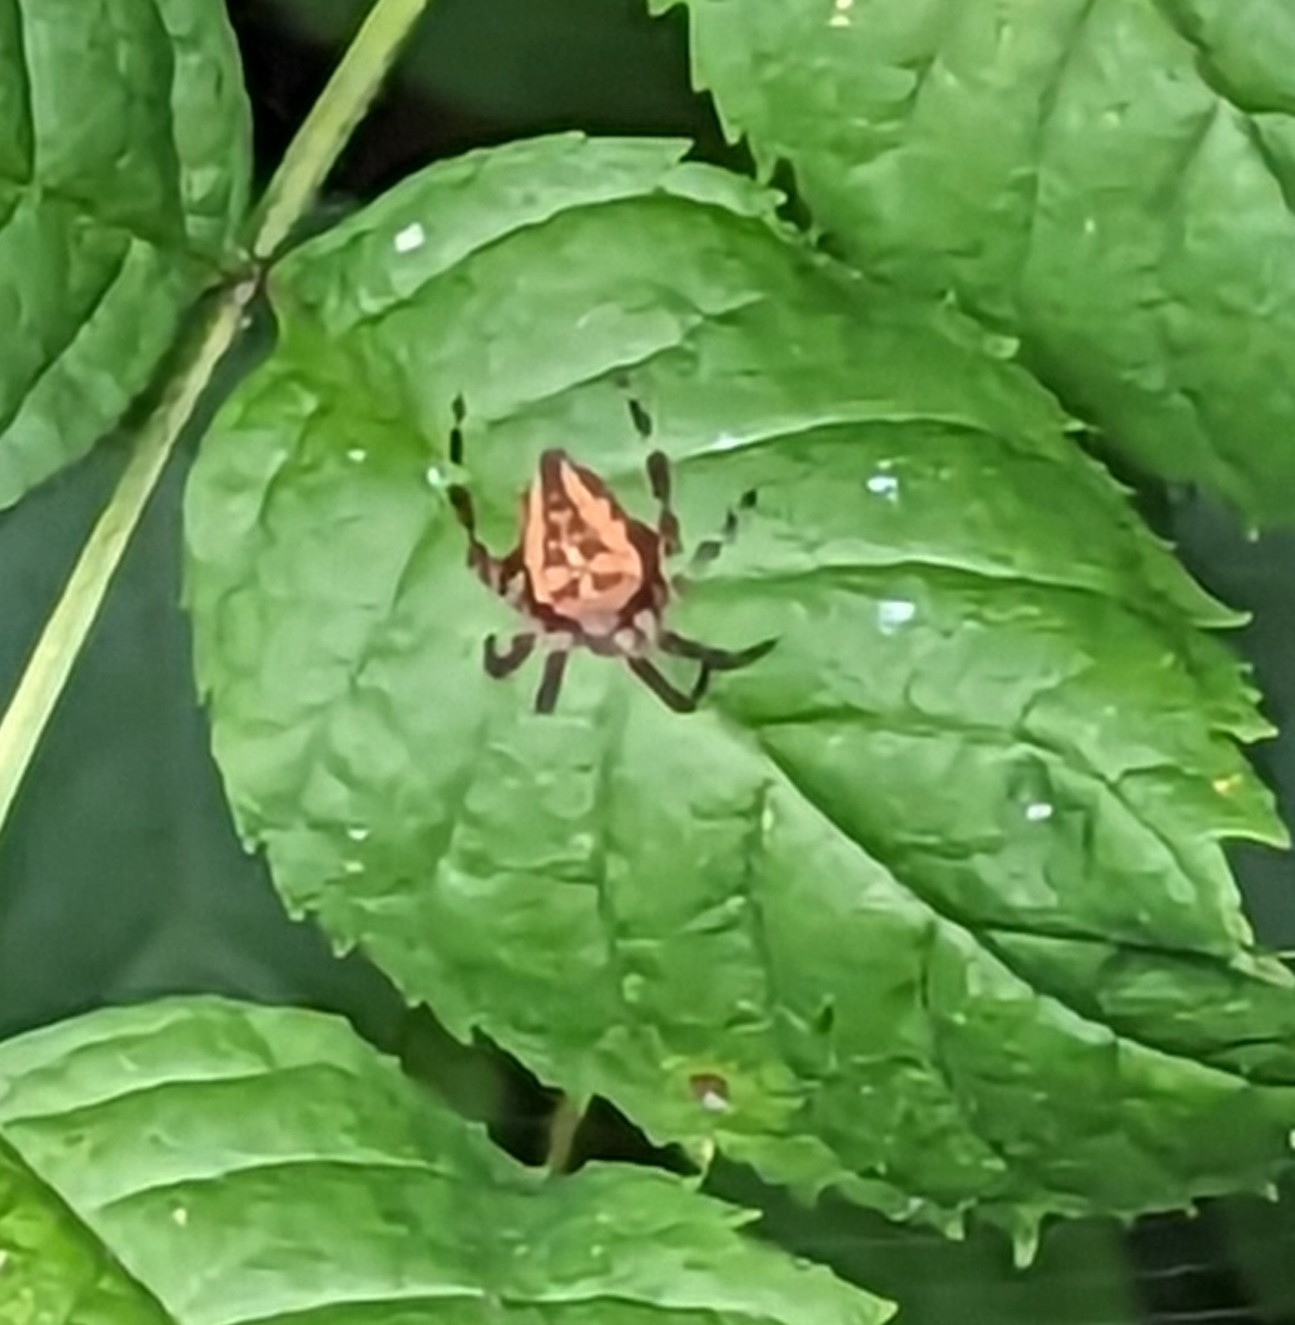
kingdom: Animalia
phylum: Arthropoda
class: Arachnida
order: Araneae
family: Araneidae
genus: Araneus
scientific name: Araneus diadematus
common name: Cross orbweaver
